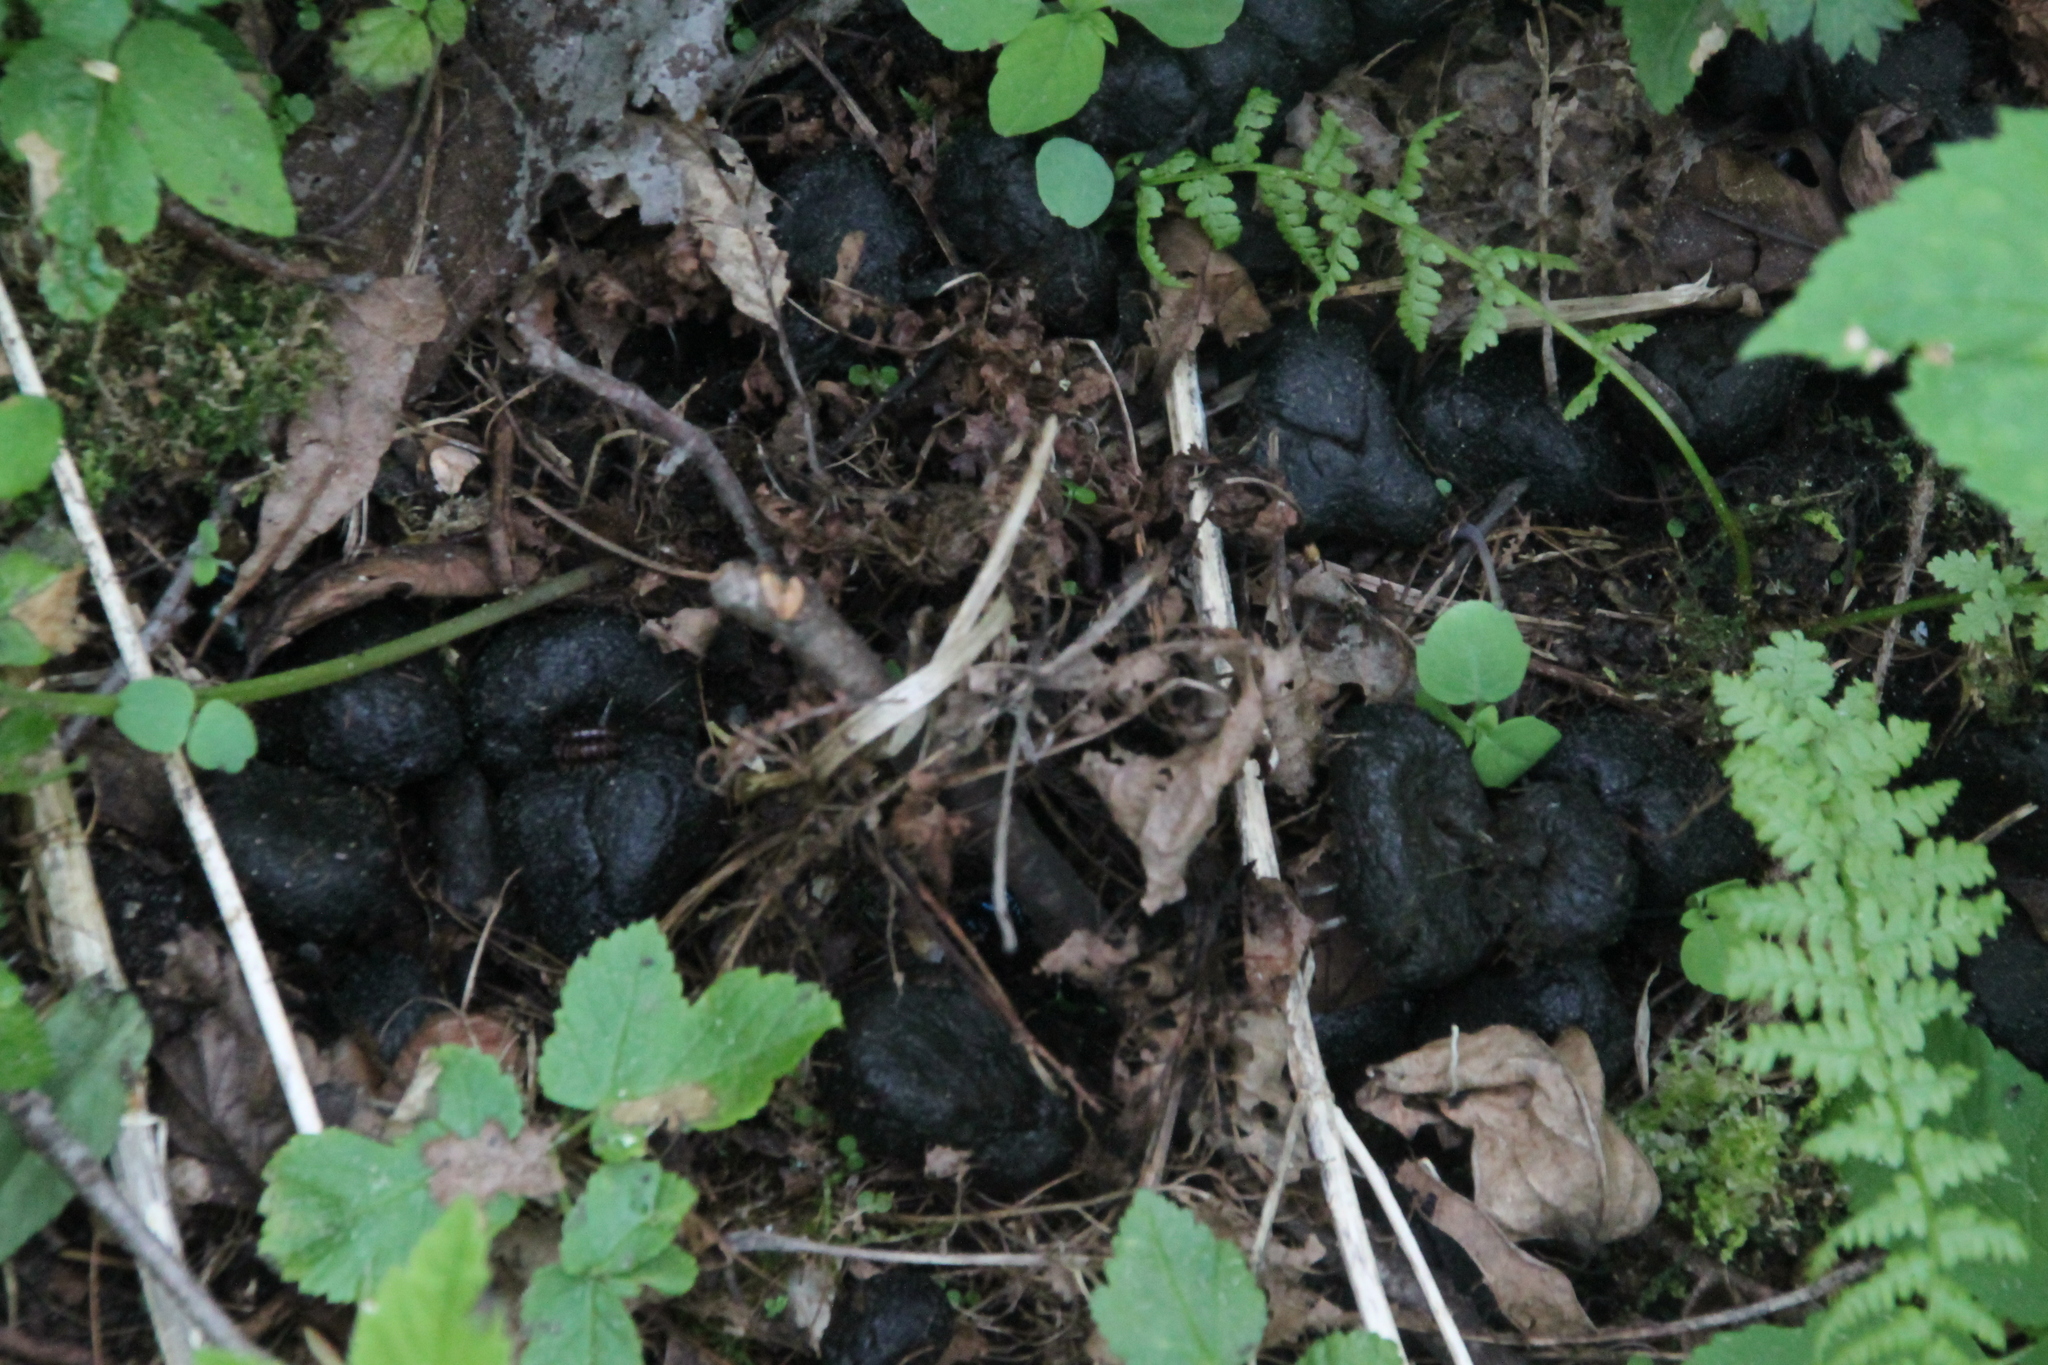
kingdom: Animalia
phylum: Chordata
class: Mammalia
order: Artiodactyla
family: Suidae
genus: Sus
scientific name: Sus scrofa
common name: Wild boar
